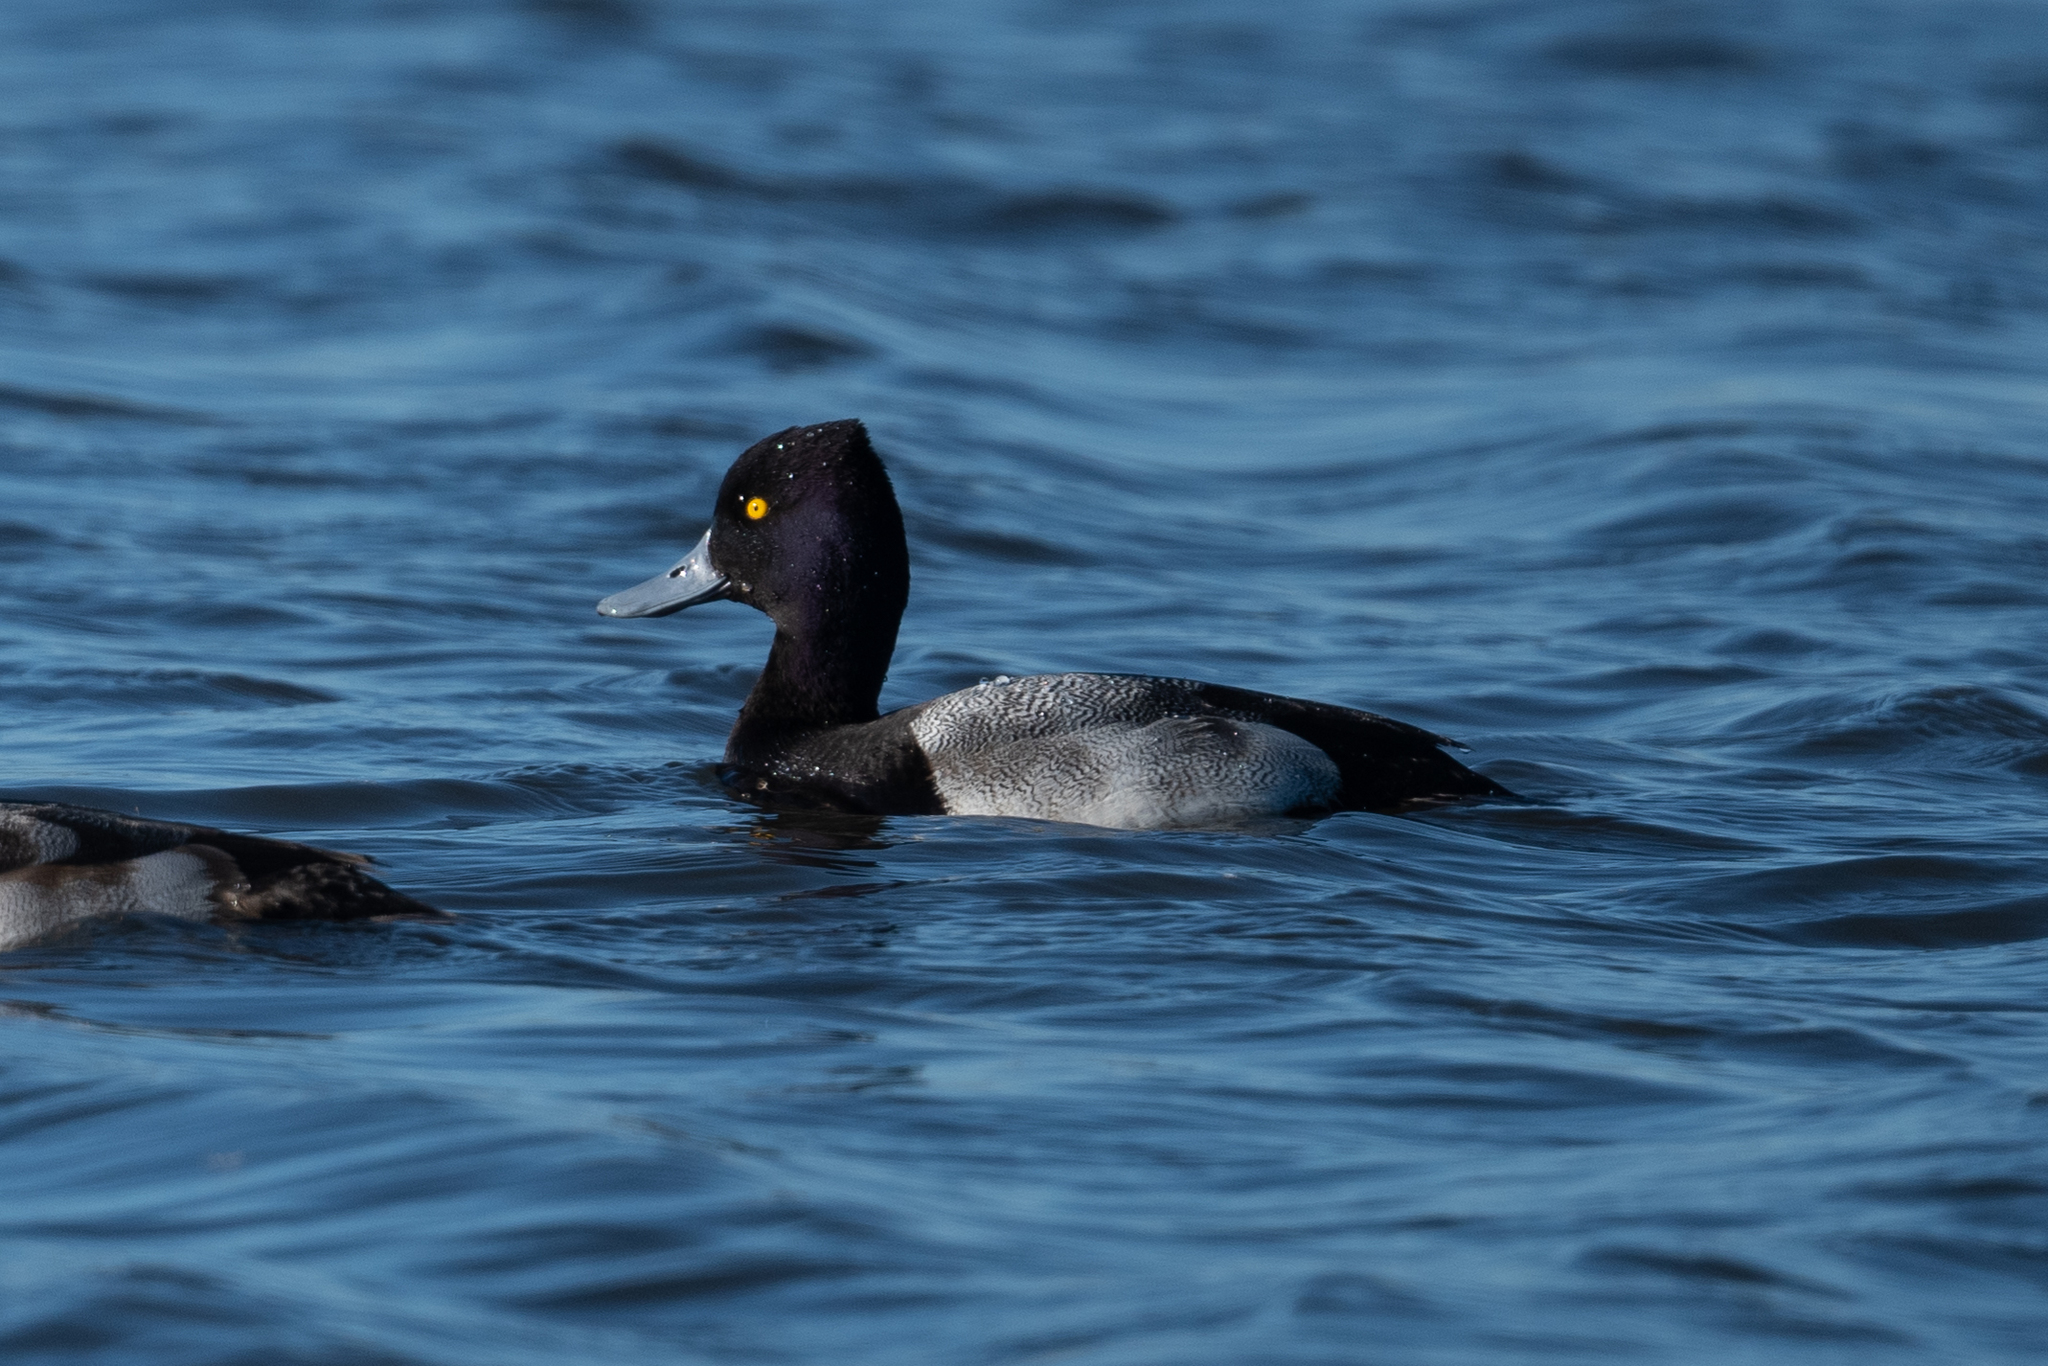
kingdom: Animalia
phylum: Chordata
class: Aves
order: Anseriformes
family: Anatidae
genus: Aythya
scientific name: Aythya affinis
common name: Lesser scaup
